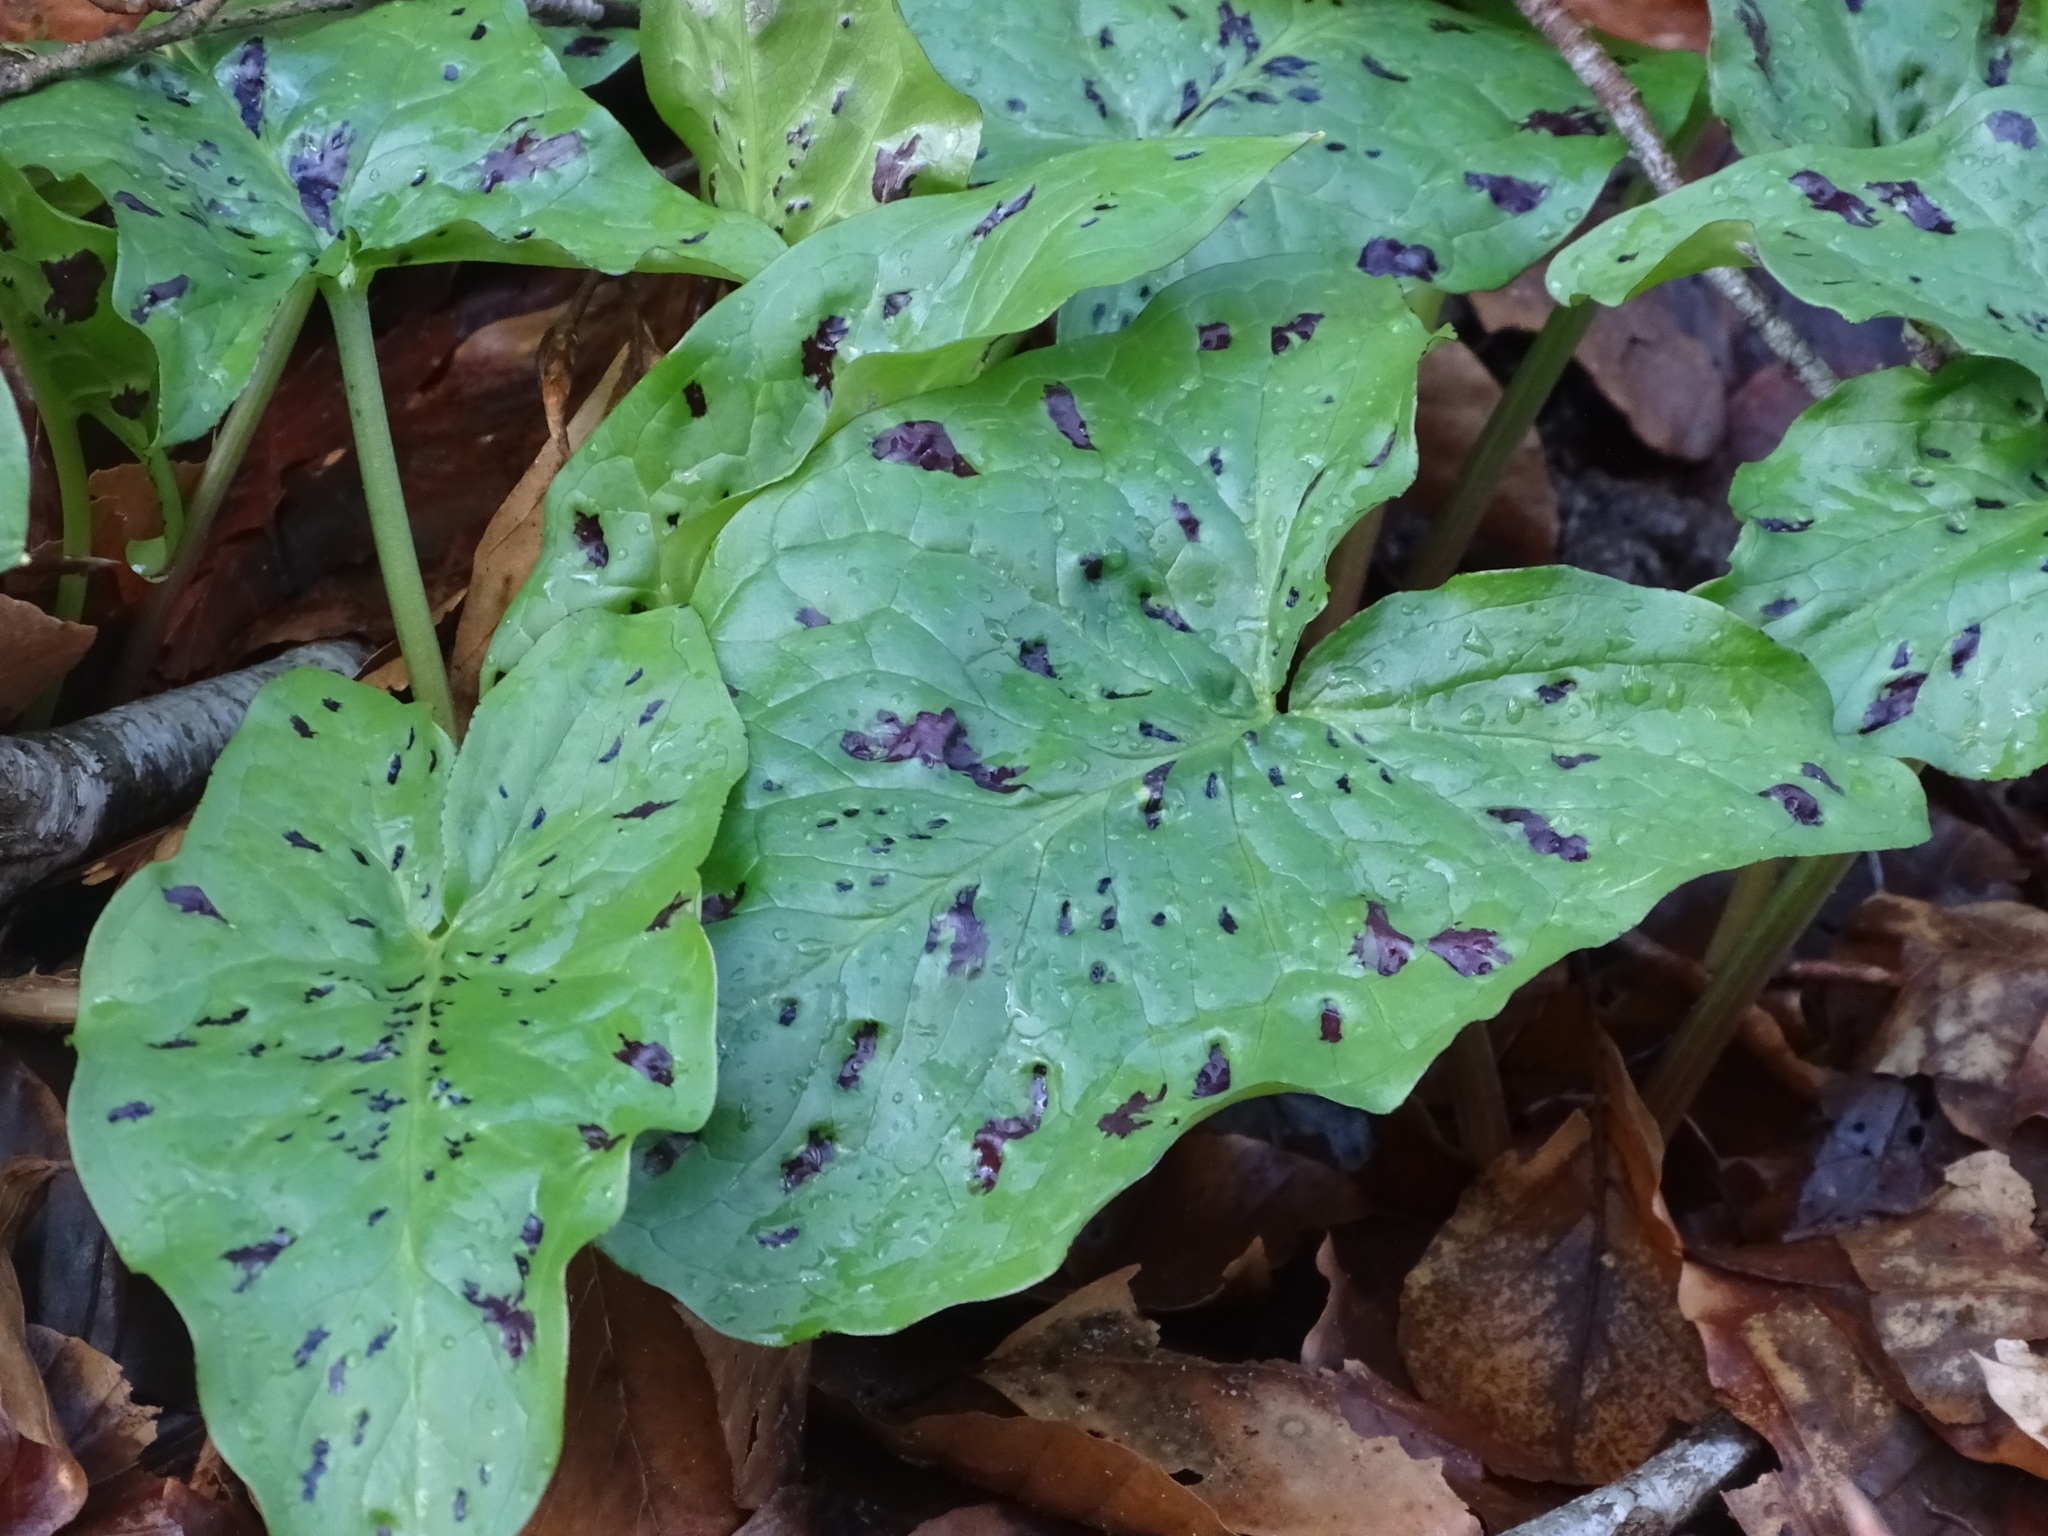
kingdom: Plantae
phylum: Tracheophyta
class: Liliopsida
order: Alismatales
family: Araceae
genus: Arum
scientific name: Arum maculatum
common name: Lords-and-ladies
